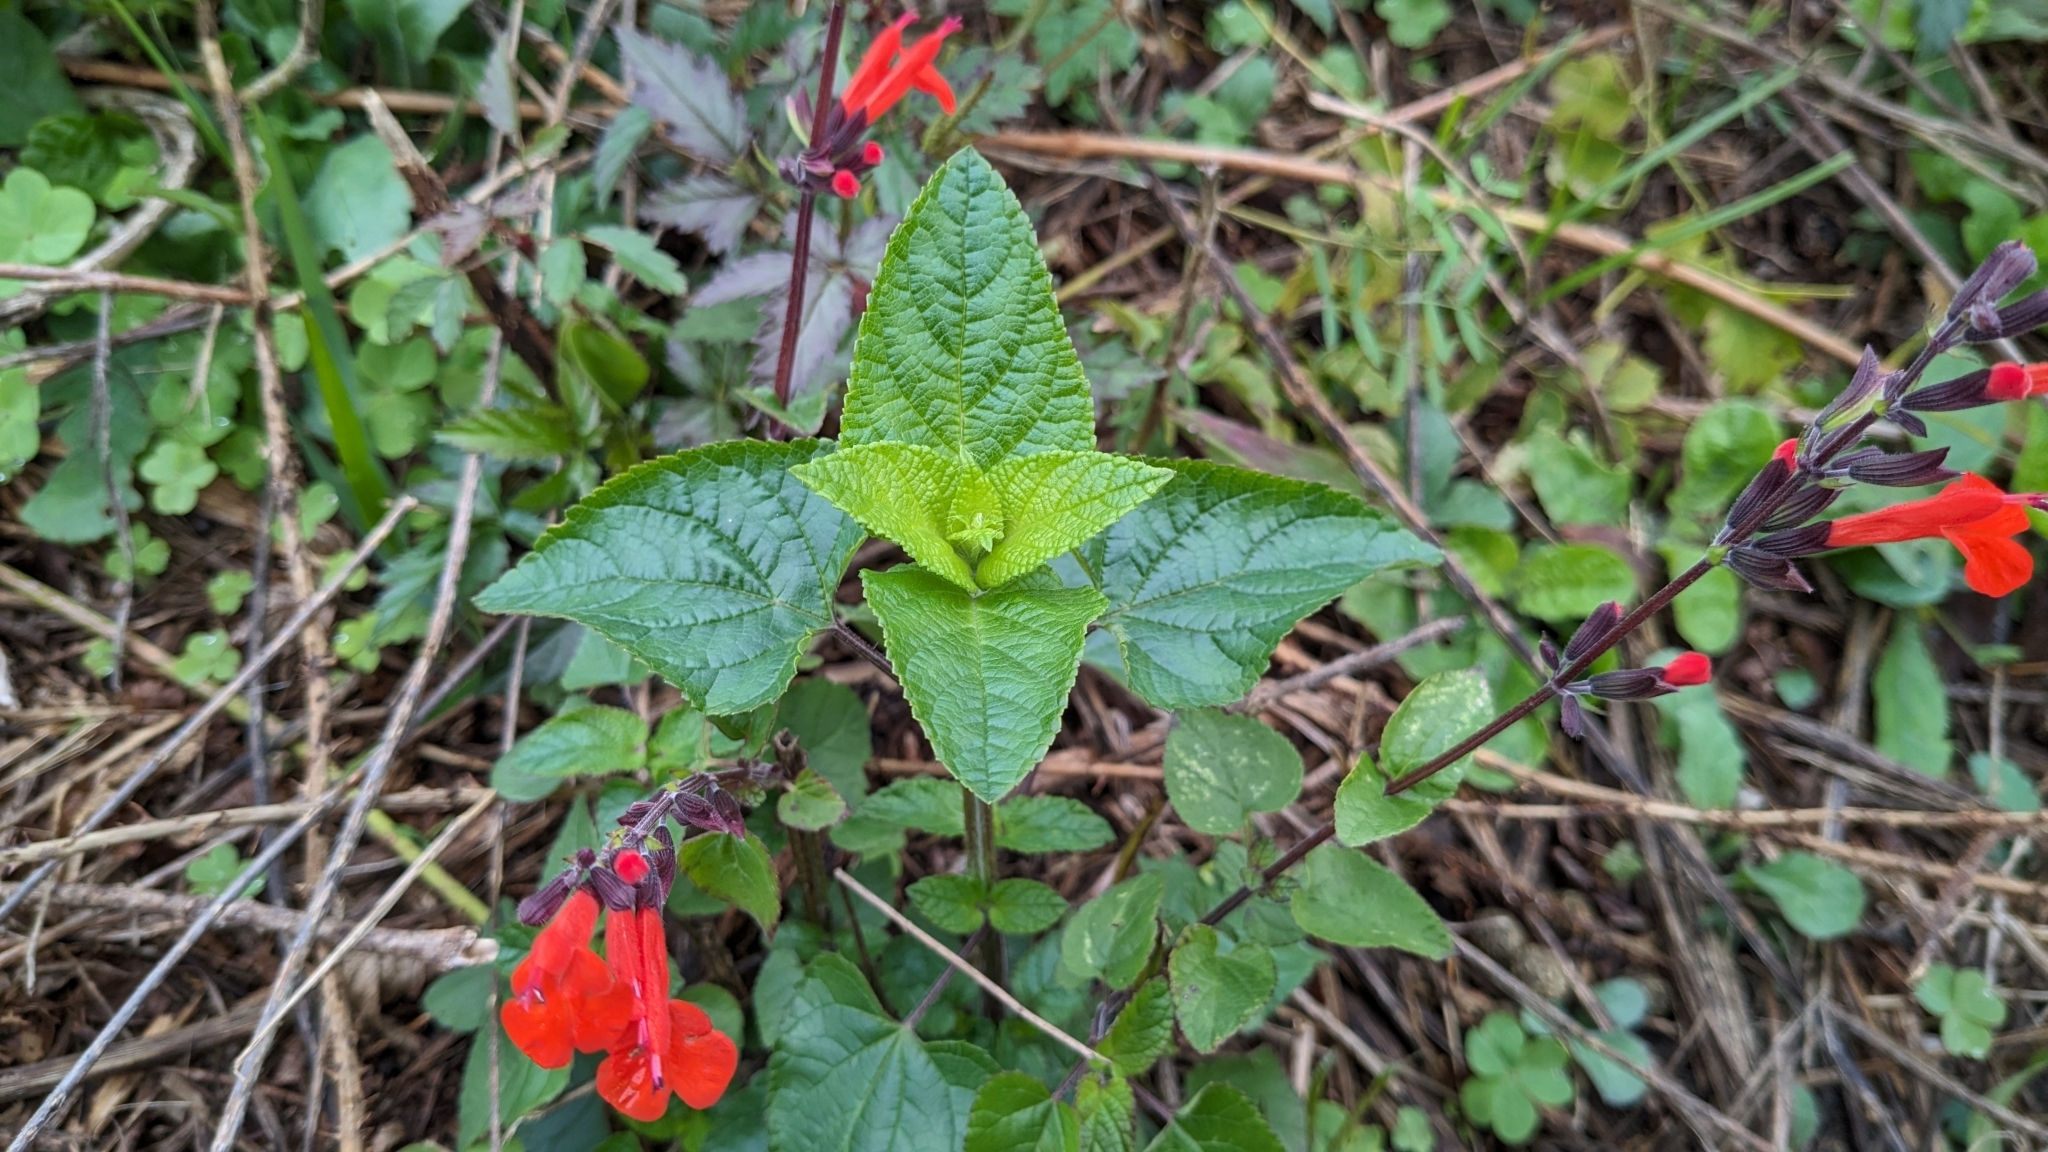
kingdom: Plantae
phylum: Tracheophyta
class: Magnoliopsida
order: Lamiales
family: Lamiaceae
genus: Salvia
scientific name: Salvia coccinea
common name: Blood sage
